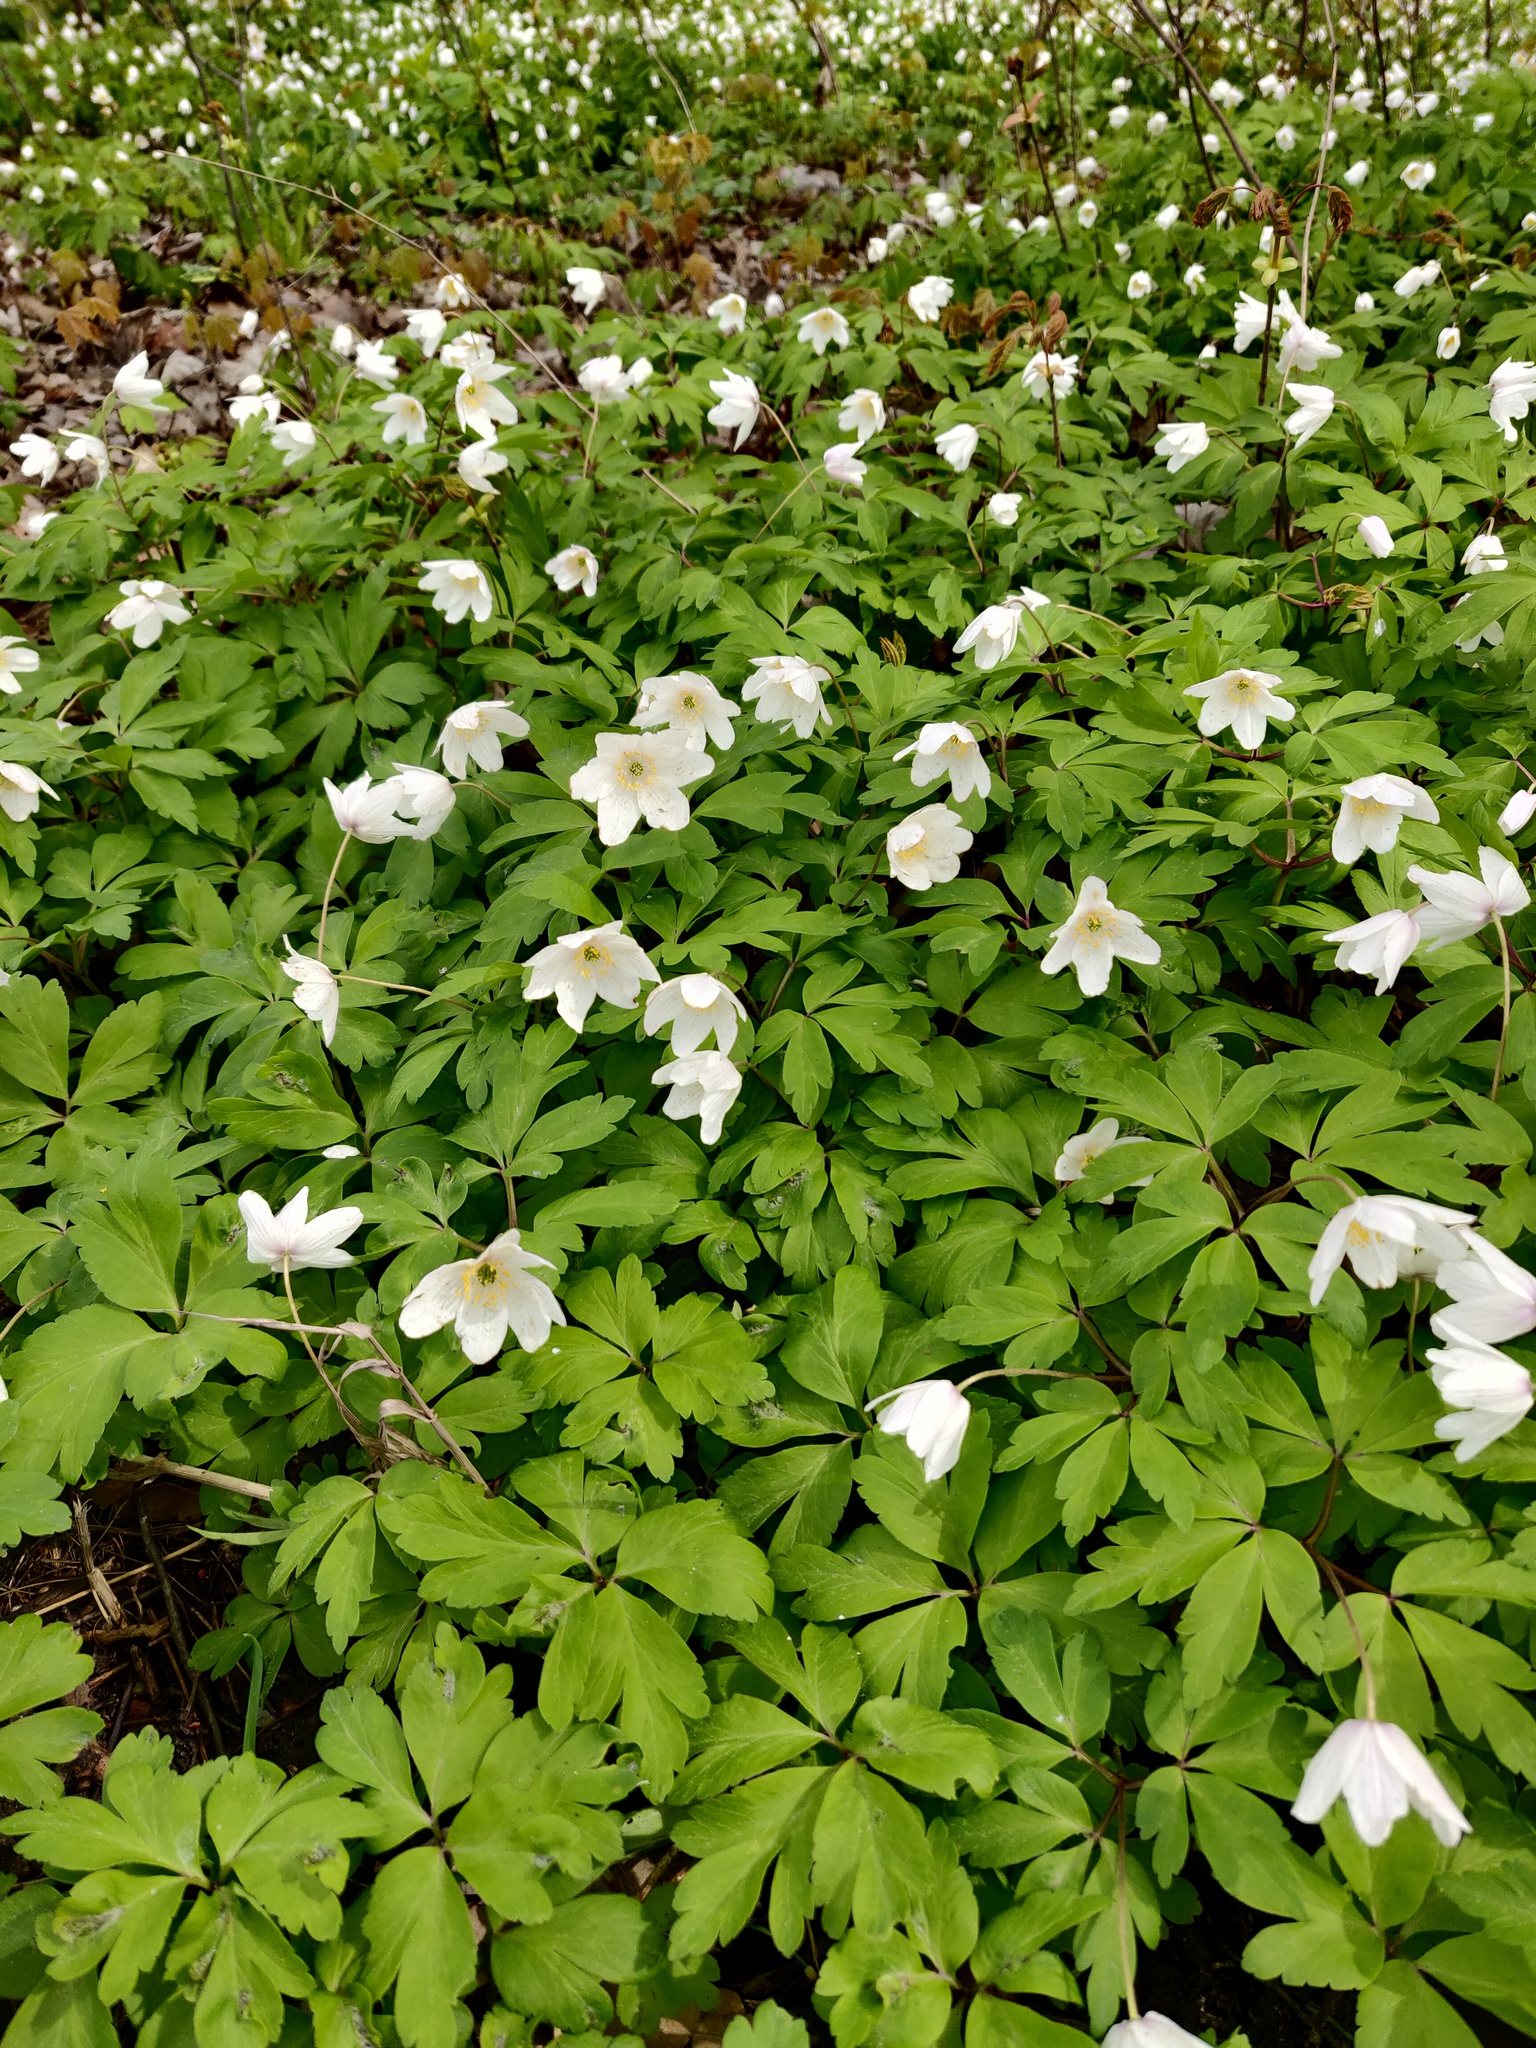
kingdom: Plantae
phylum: Tracheophyta
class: Magnoliopsida
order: Ranunculales
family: Ranunculaceae
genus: Anemone
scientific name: Anemone nemorosa
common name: Wood anemone
